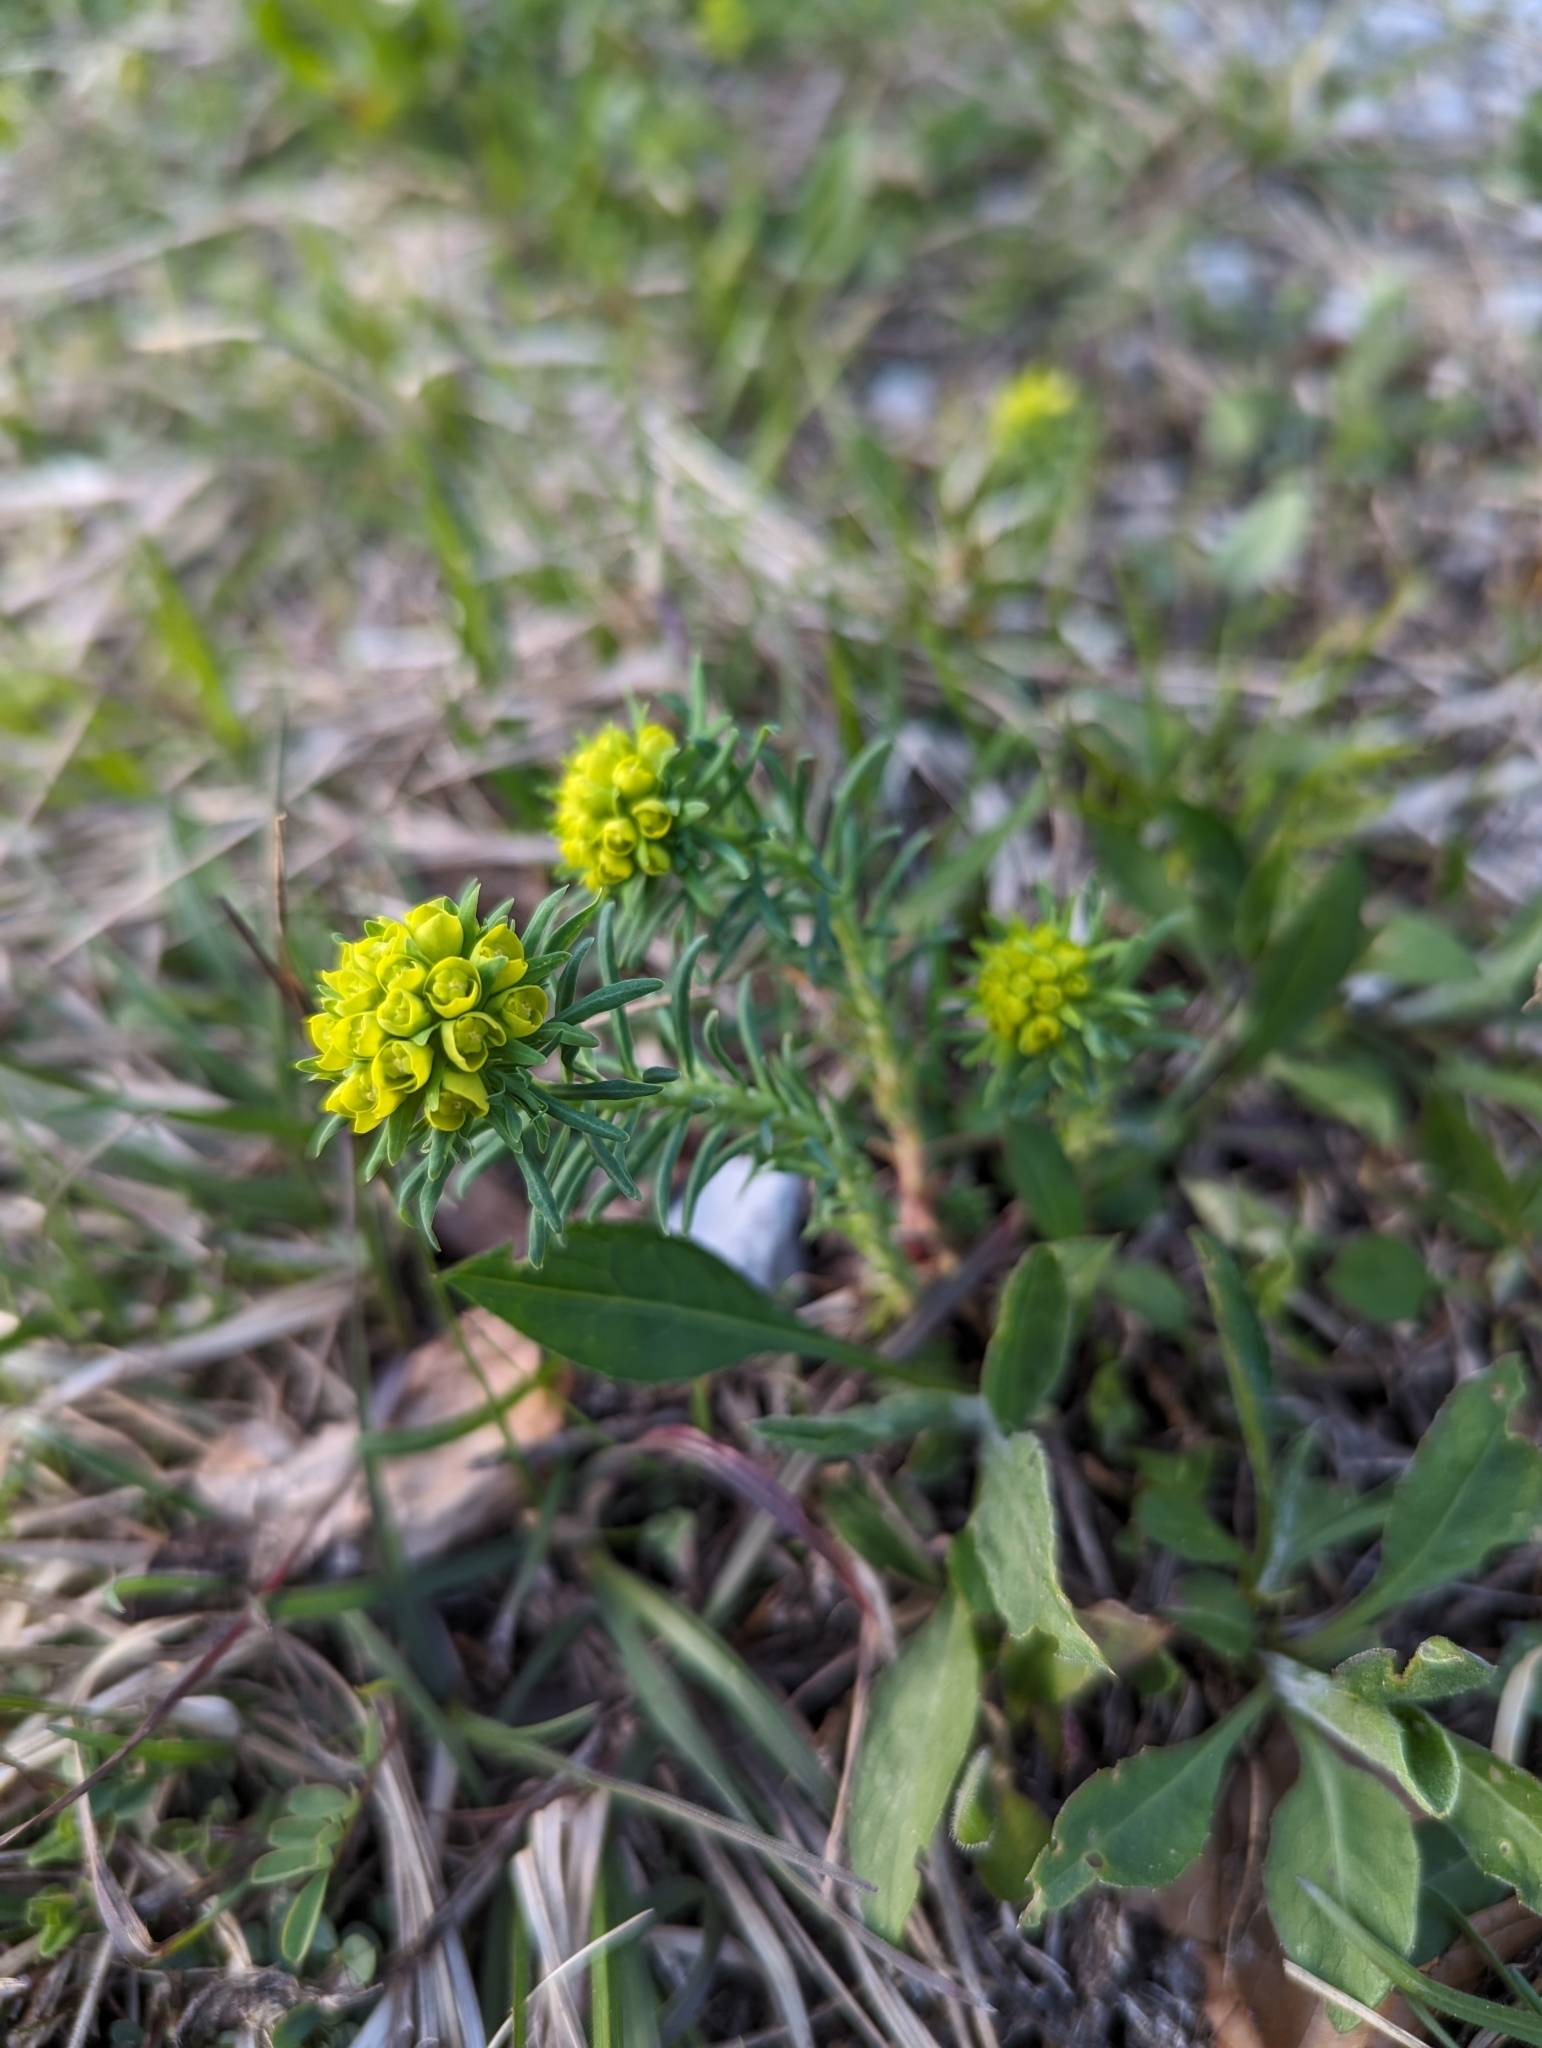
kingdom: Plantae
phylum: Tracheophyta
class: Magnoliopsida
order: Malpighiales
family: Euphorbiaceae
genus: Euphorbia
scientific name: Euphorbia cyparissias
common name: Cypress spurge
